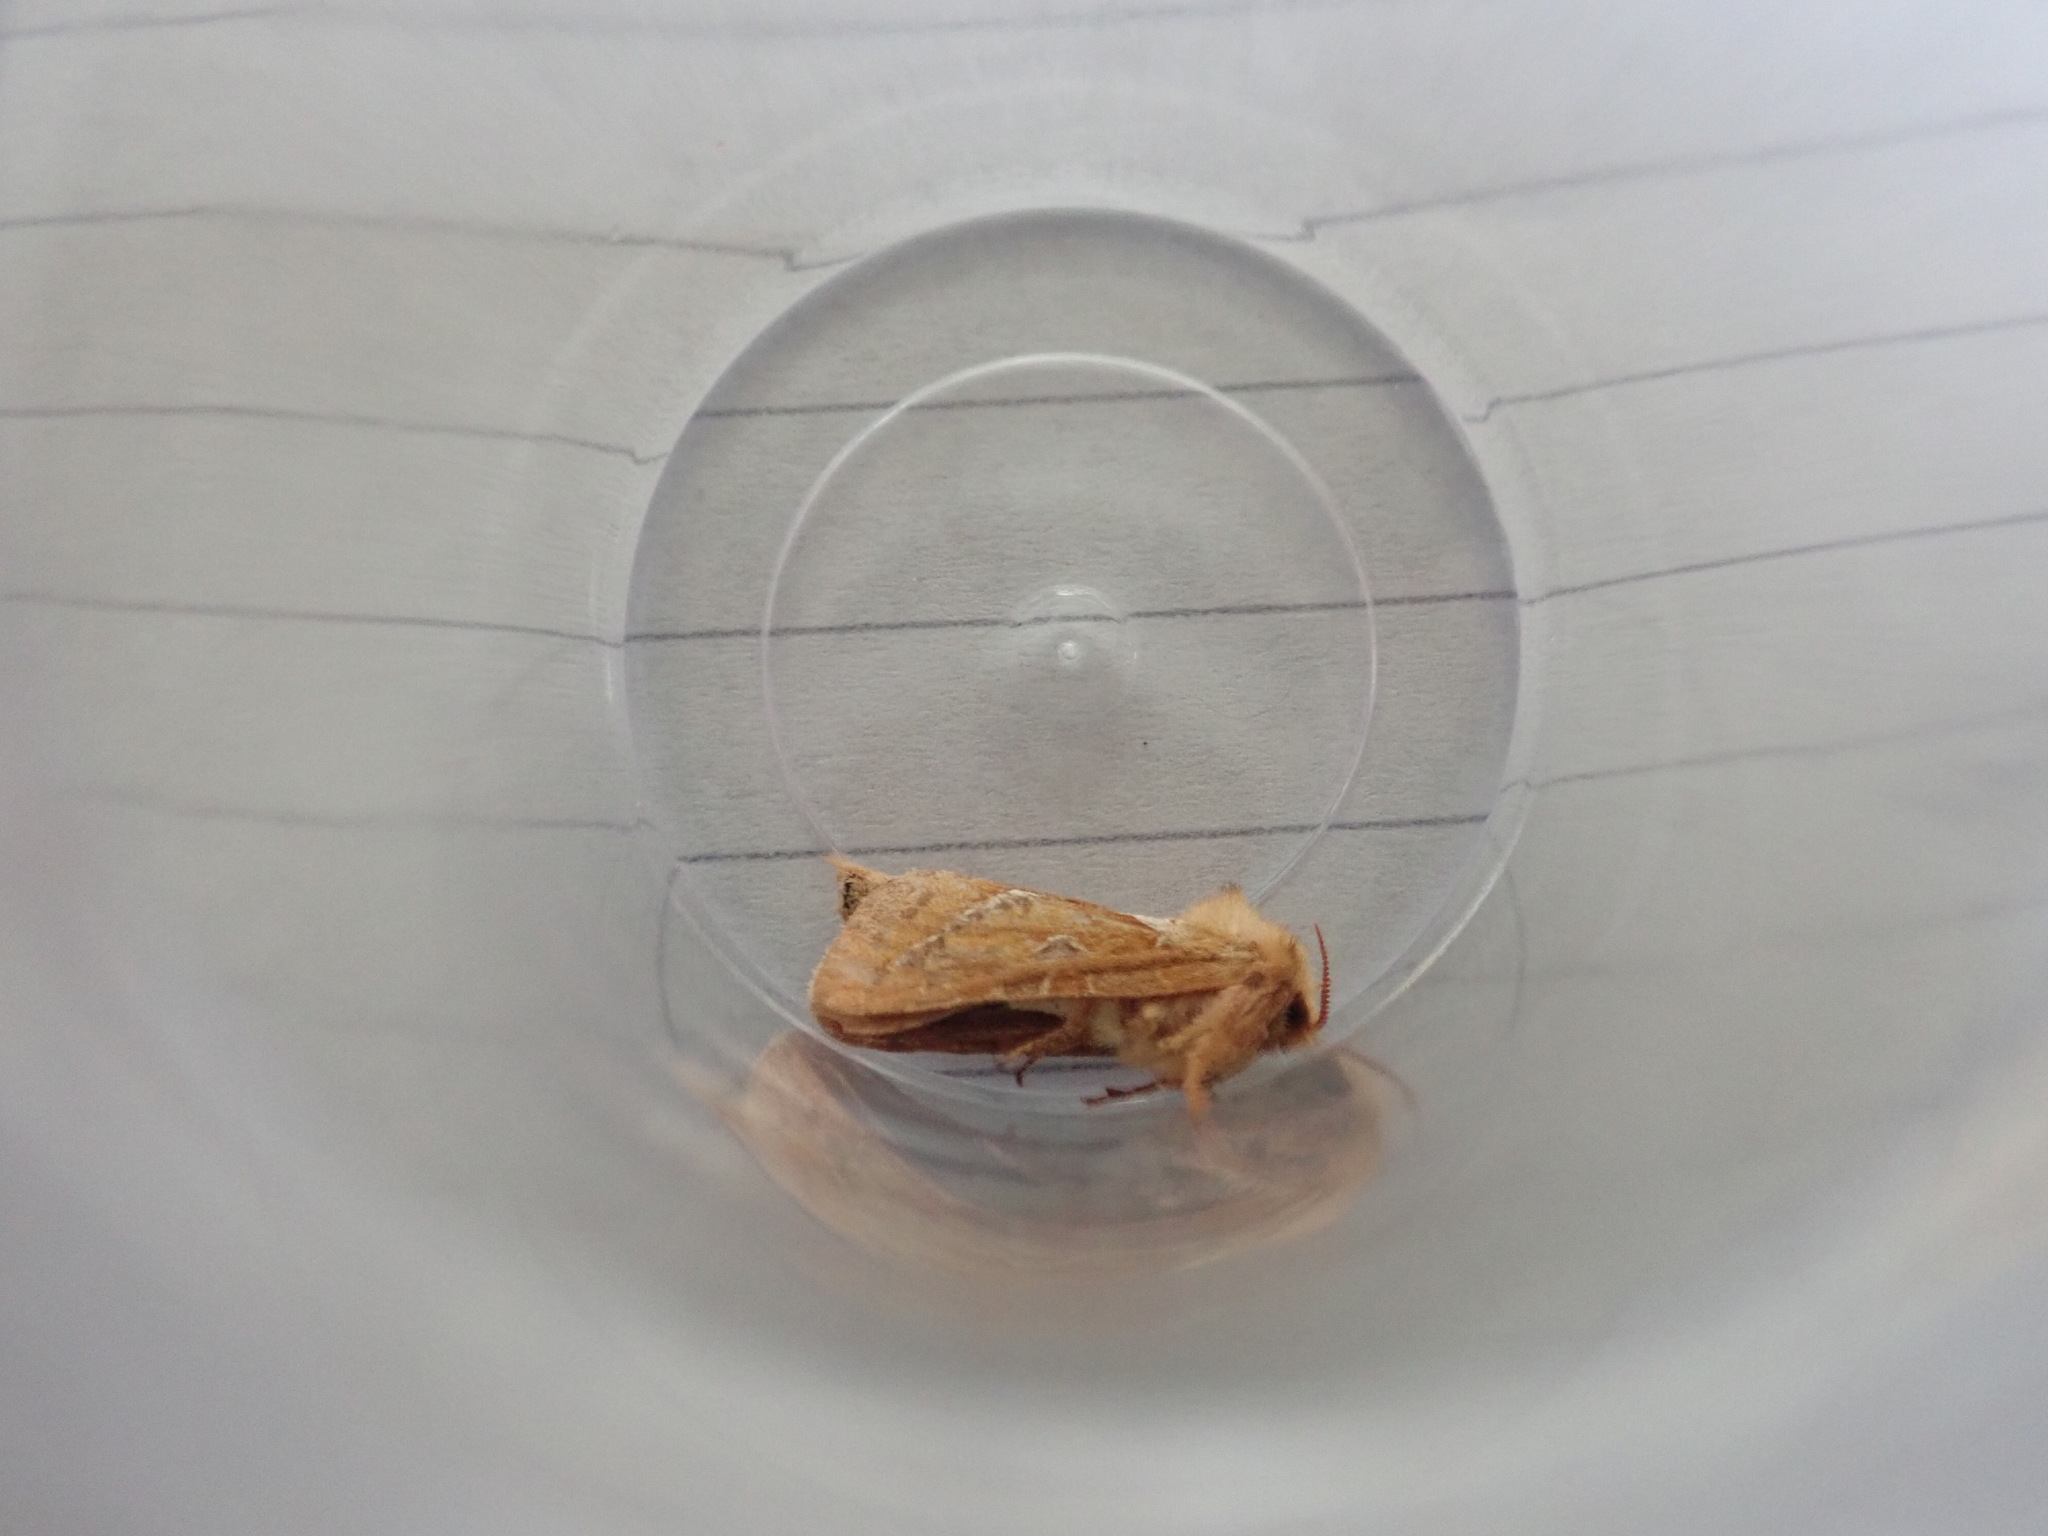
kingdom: Animalia
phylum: Arthropoda
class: Insecta
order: Lepidoptera
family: Hepialidae
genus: Triodia
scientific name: Triodia sylvina
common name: Orange swift
